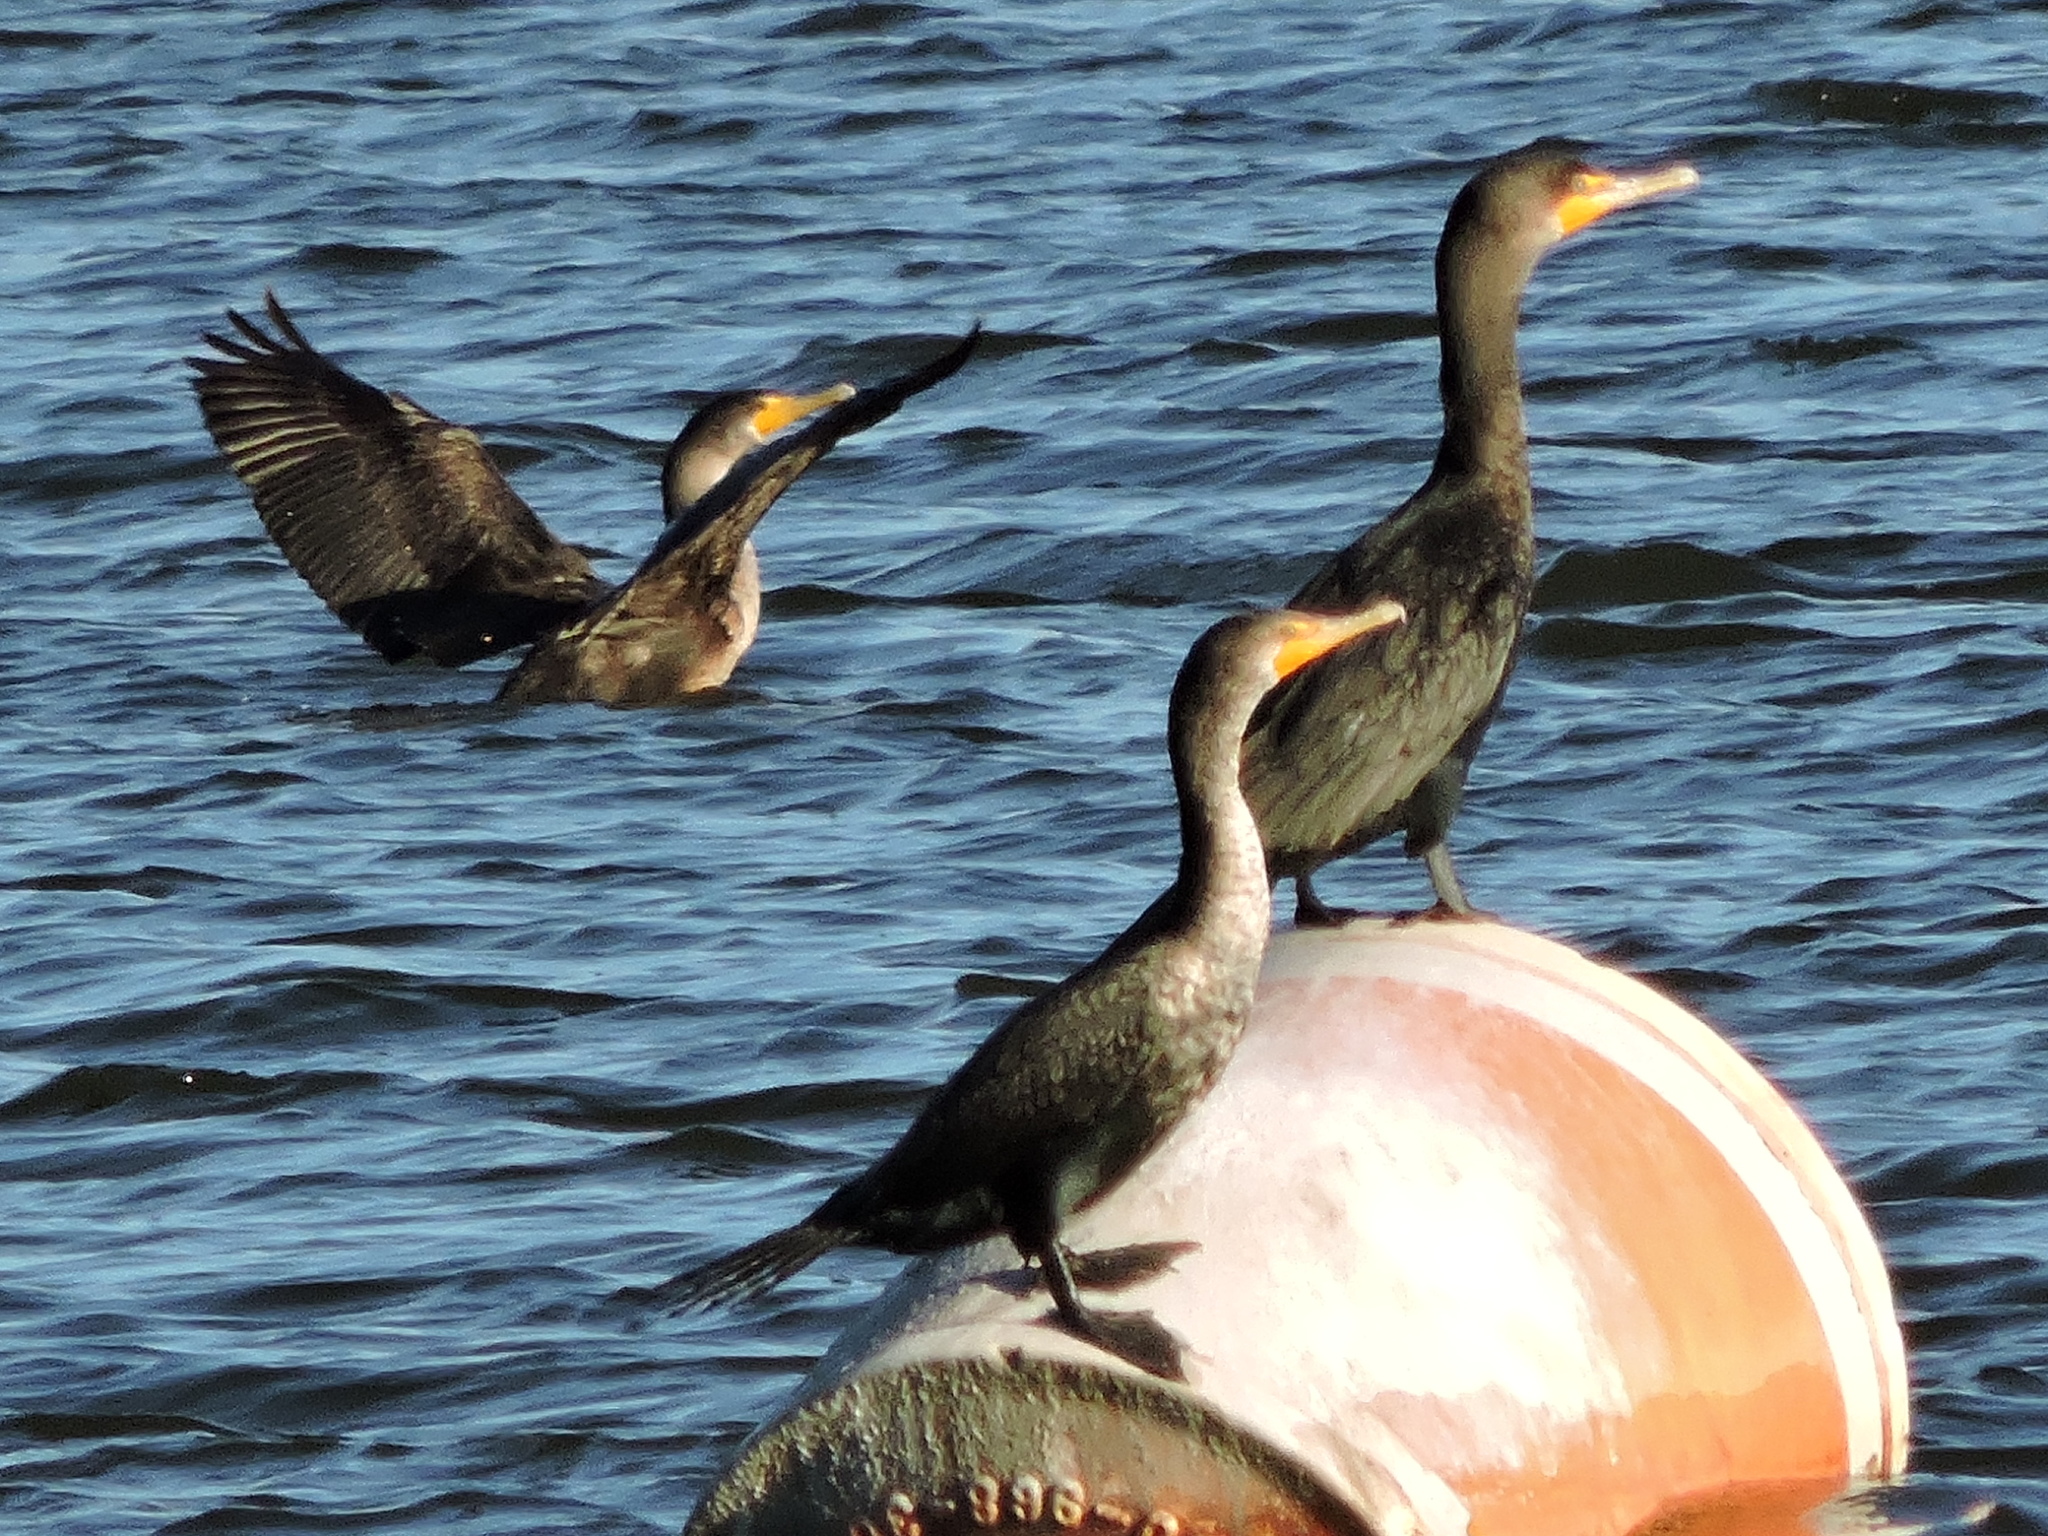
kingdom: Animalia
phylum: Chordata
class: Aves
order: Suliformes
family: Phalacrocoracidae
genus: Phalacrocorax
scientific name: Phalacrocorax auritus
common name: Double-crested cormorant
